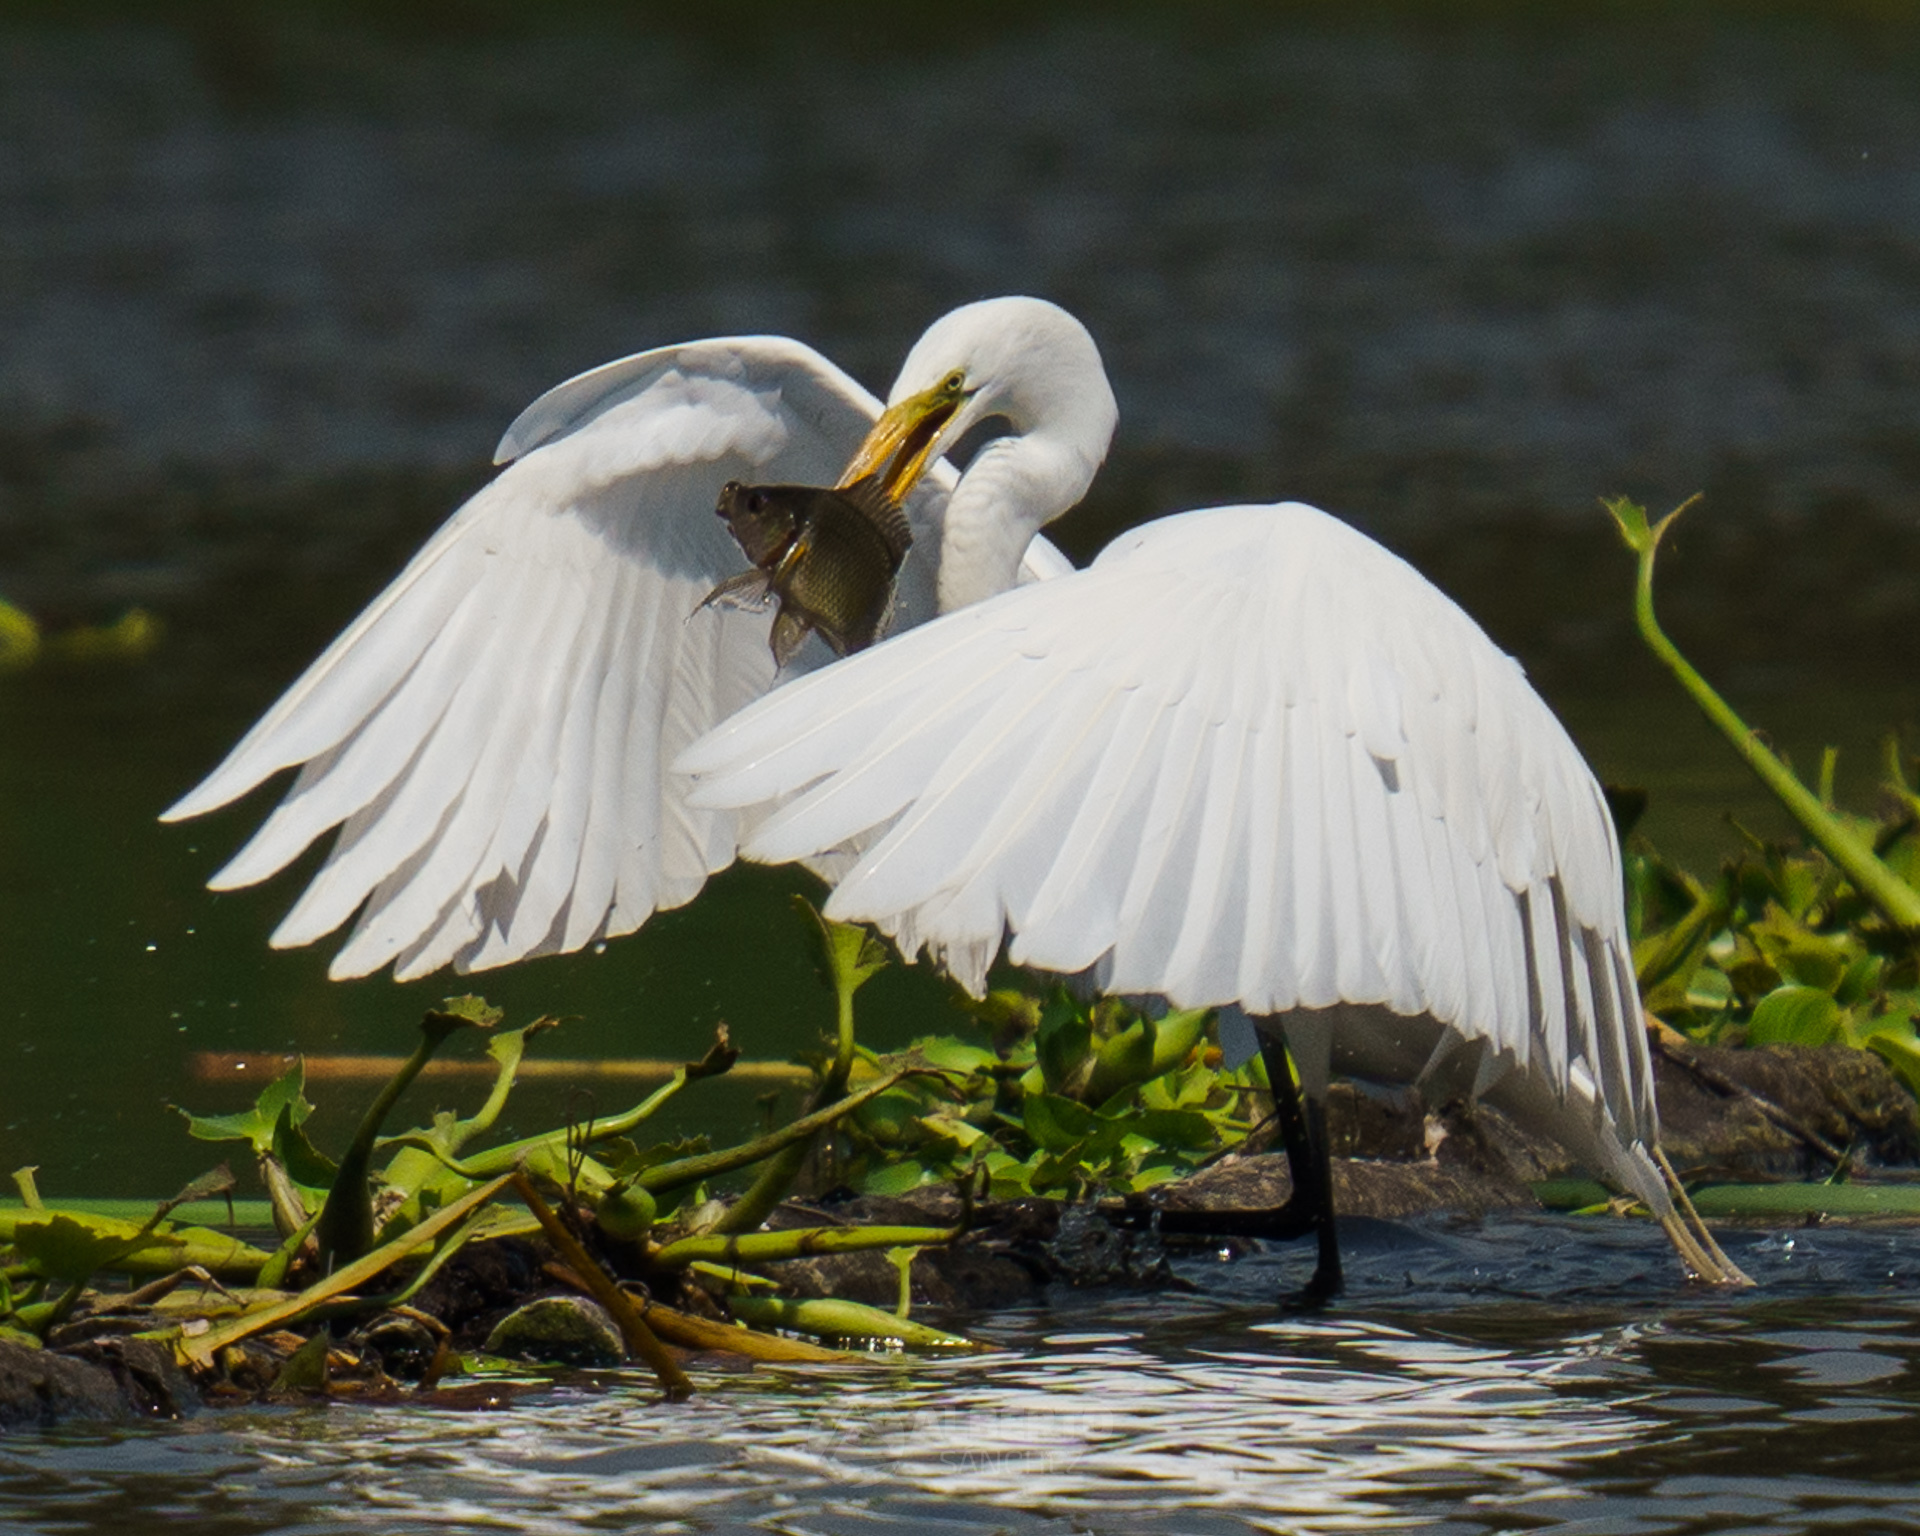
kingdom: Animalia
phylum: Chordata
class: Aves
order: Pelecaniformes
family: Ardeidae
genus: Ardea
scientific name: Ardea alba
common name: Great egret
